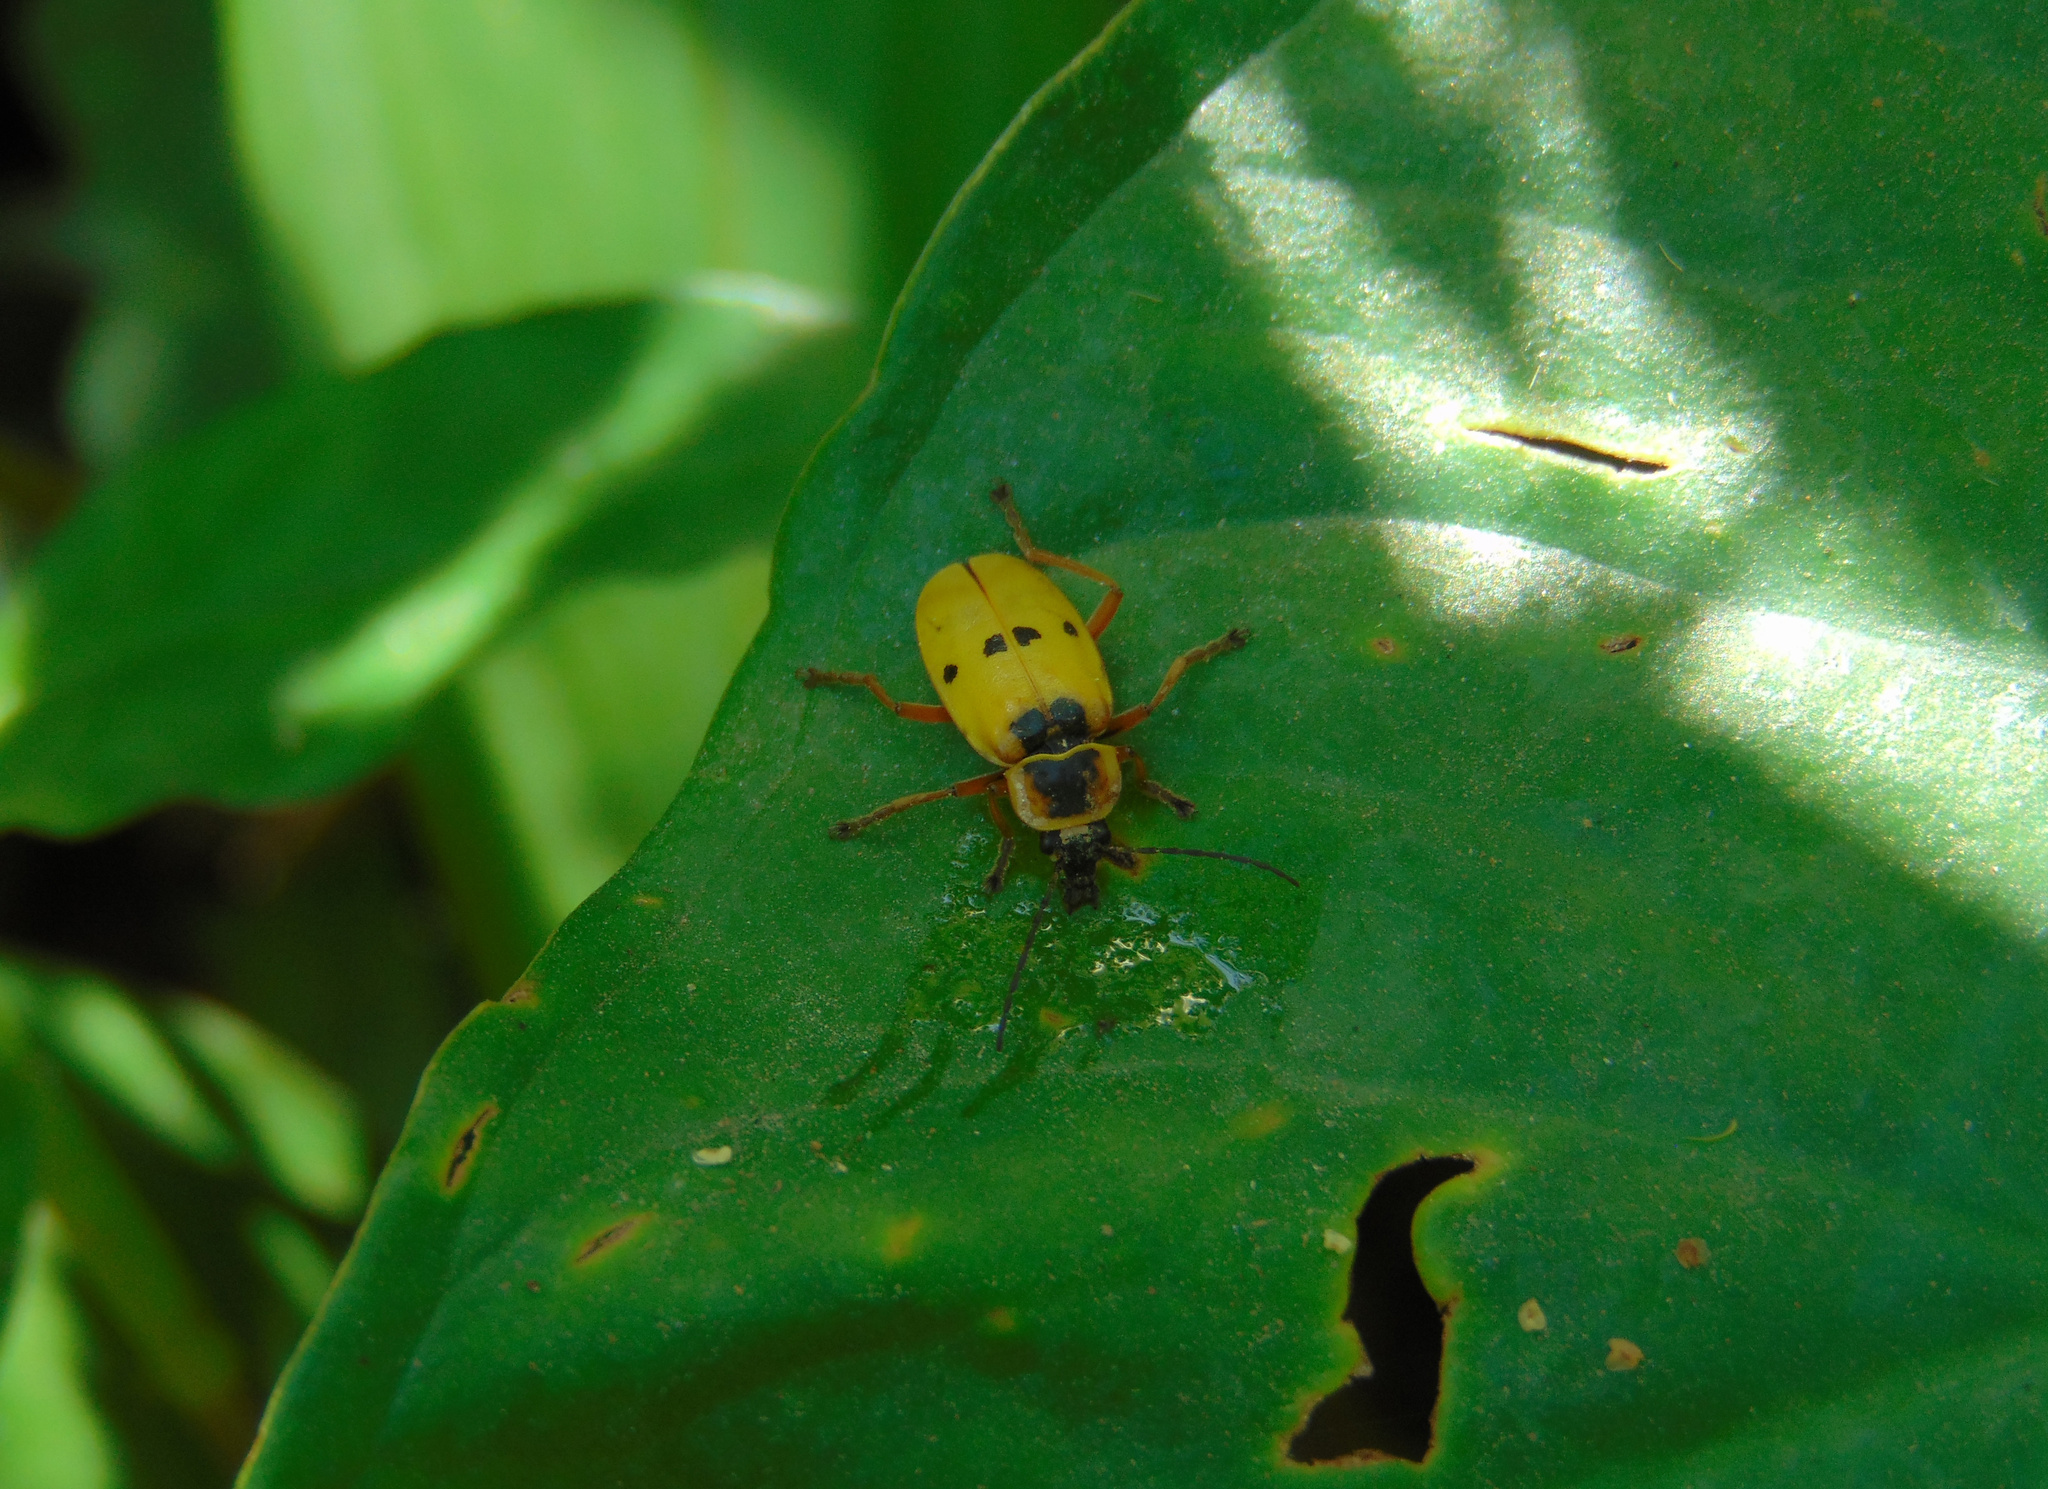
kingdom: Animalia
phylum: Arthropoda
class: Insecta
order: Coleoptera
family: Cantharidae
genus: Chauliognathus
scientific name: Chauliognathus
